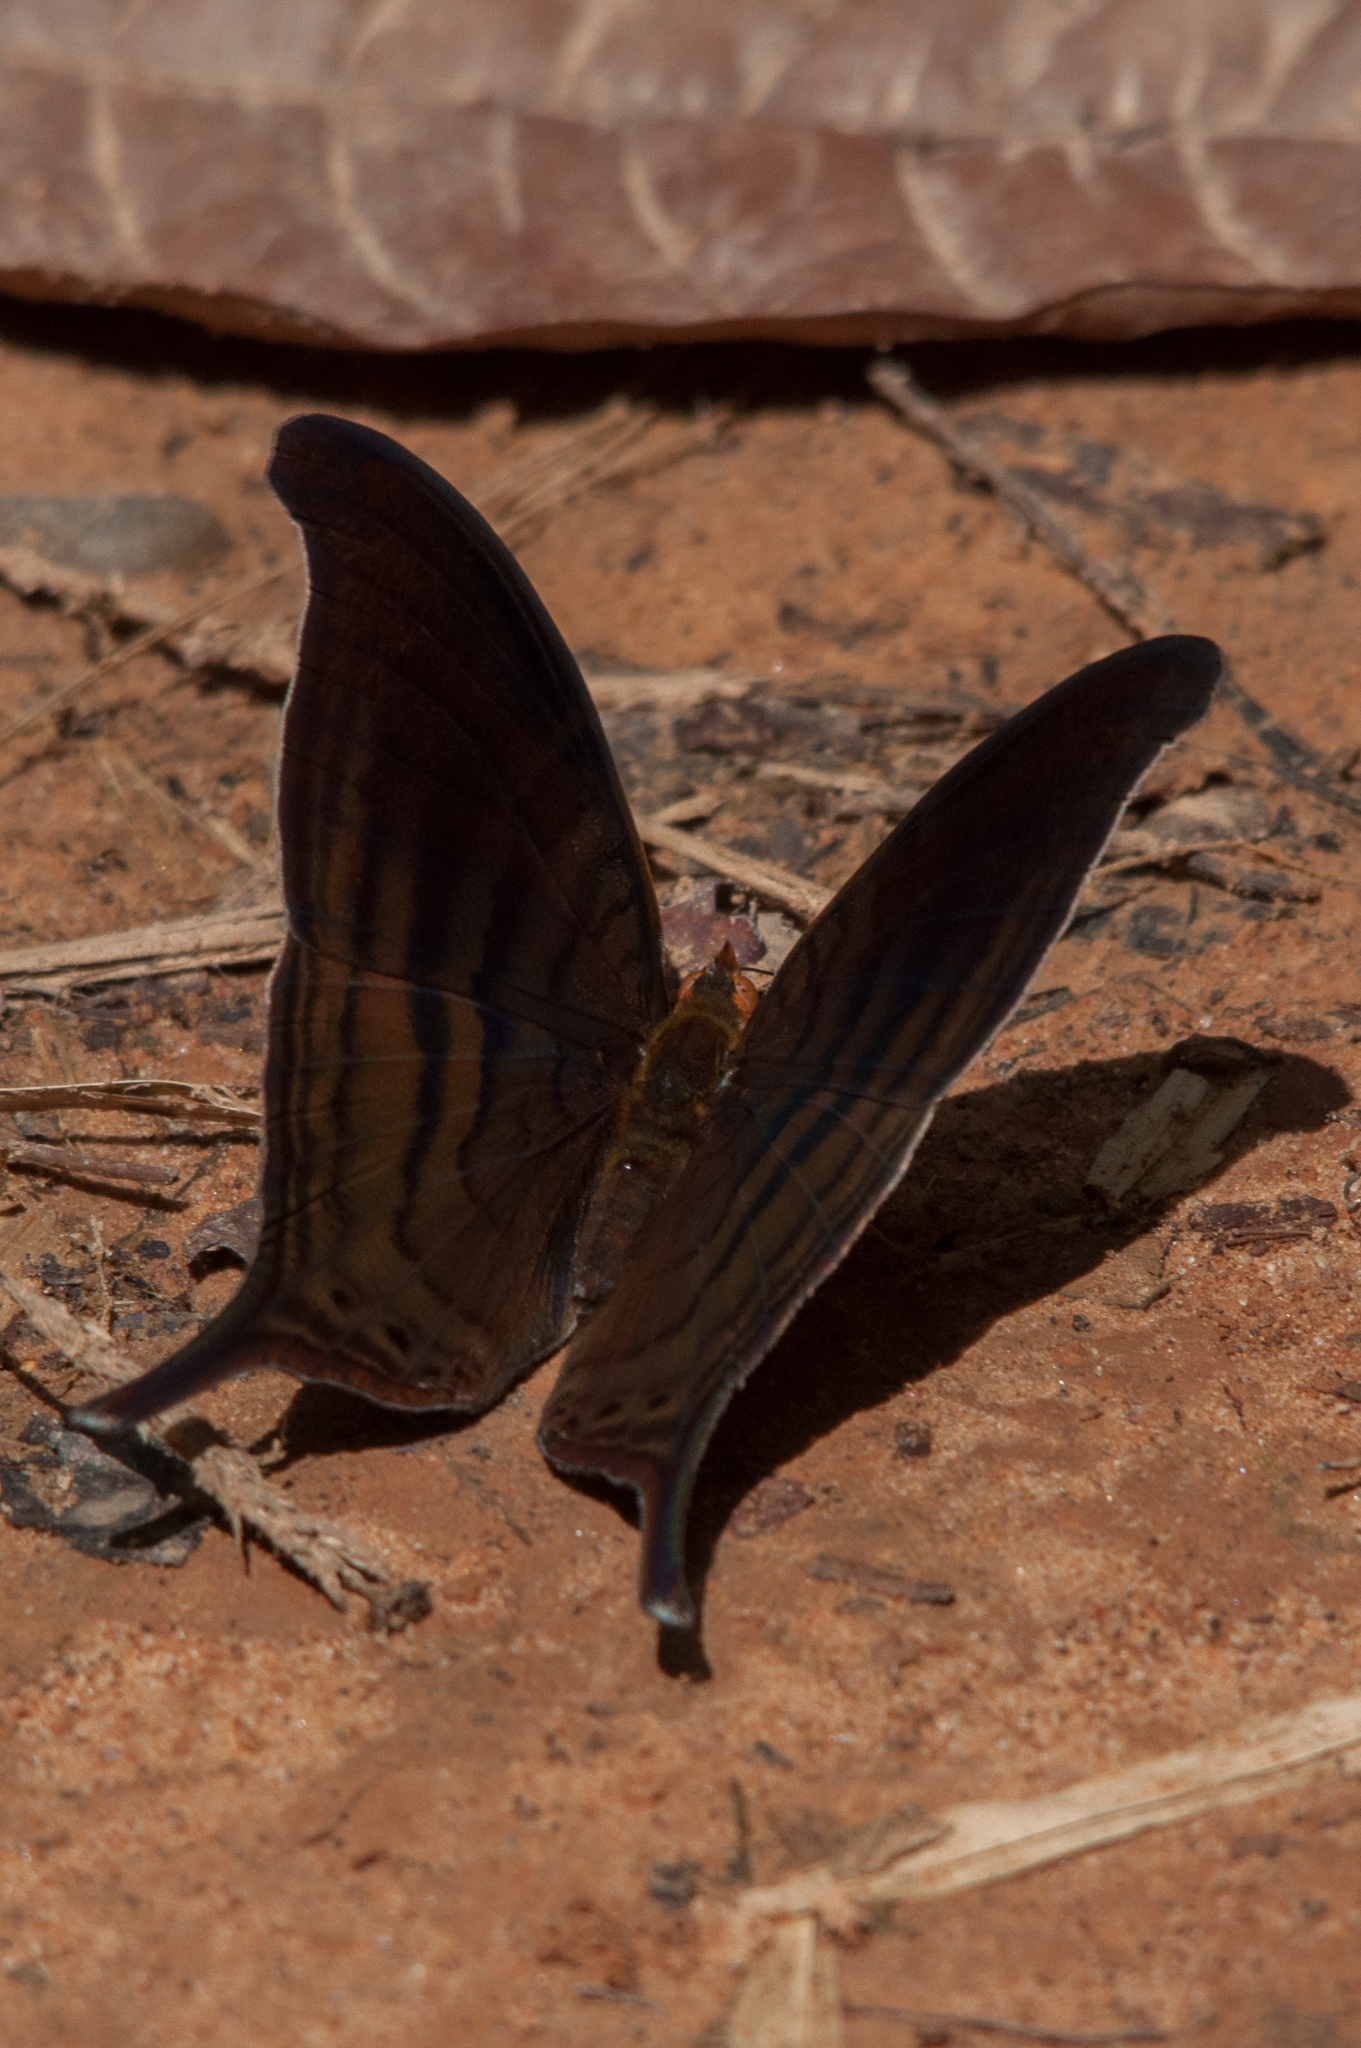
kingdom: Animalia
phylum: Arthropoda
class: Insecta
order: Lepidoptera
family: Nymphalidae
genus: Marpesia
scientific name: Marpesia themistocles
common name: Norica daggerwing
